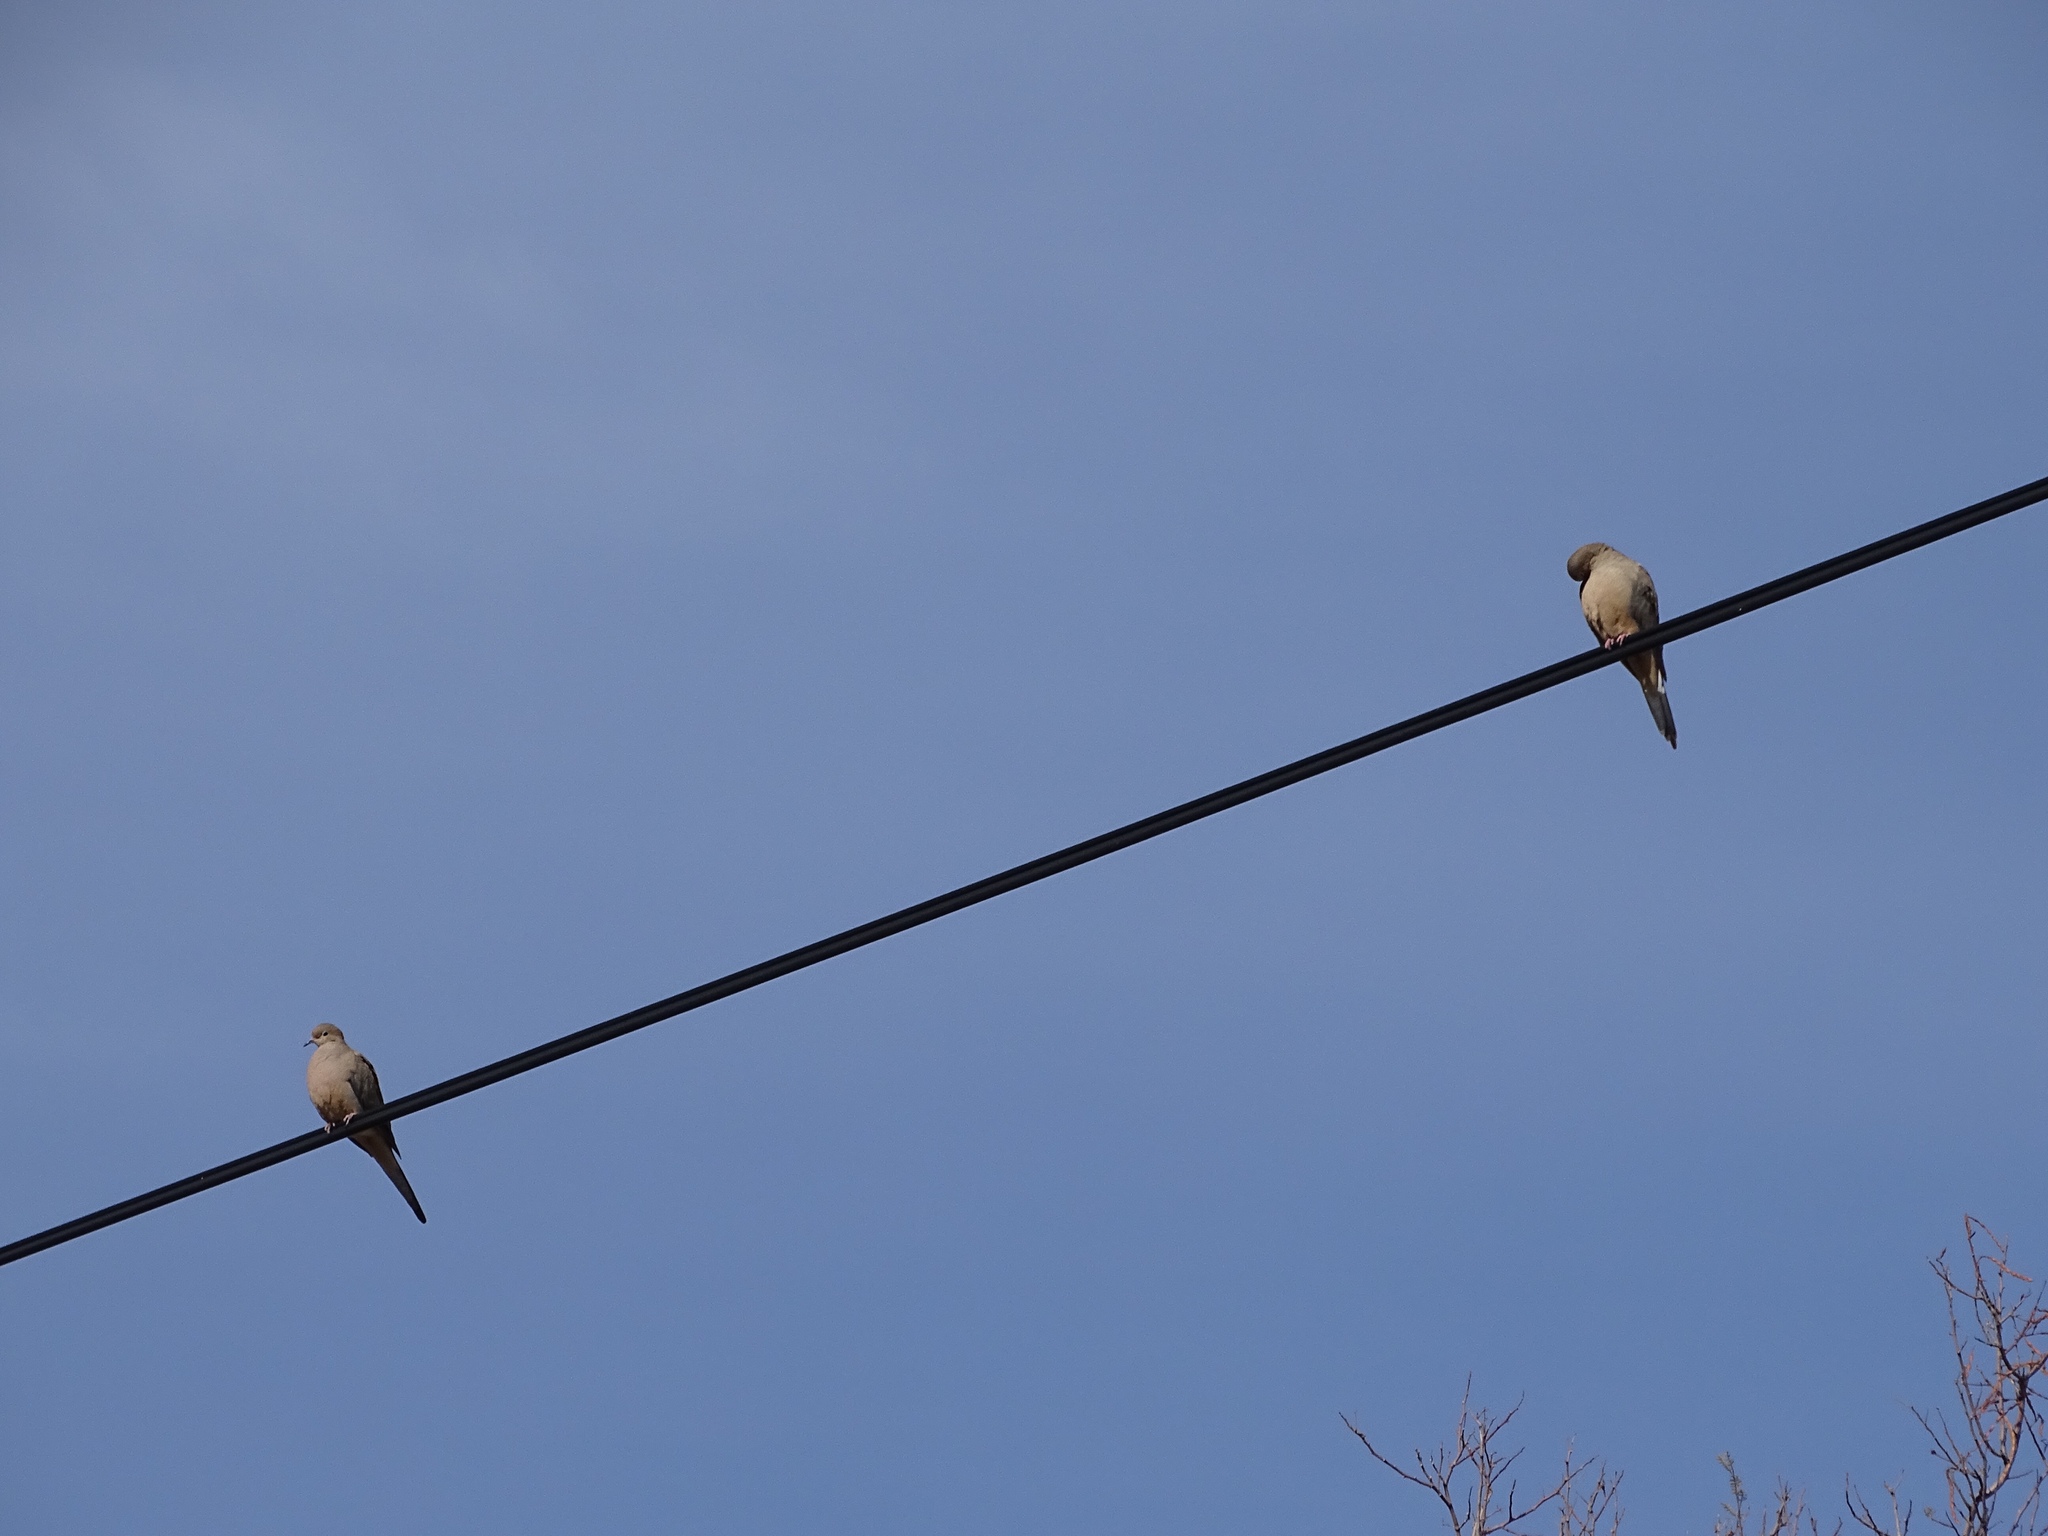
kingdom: Animalia
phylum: Chordata
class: Aves
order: Columbiformes
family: Columbidae
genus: Zenaida
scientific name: Zenaida macroura
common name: Mourning dove
